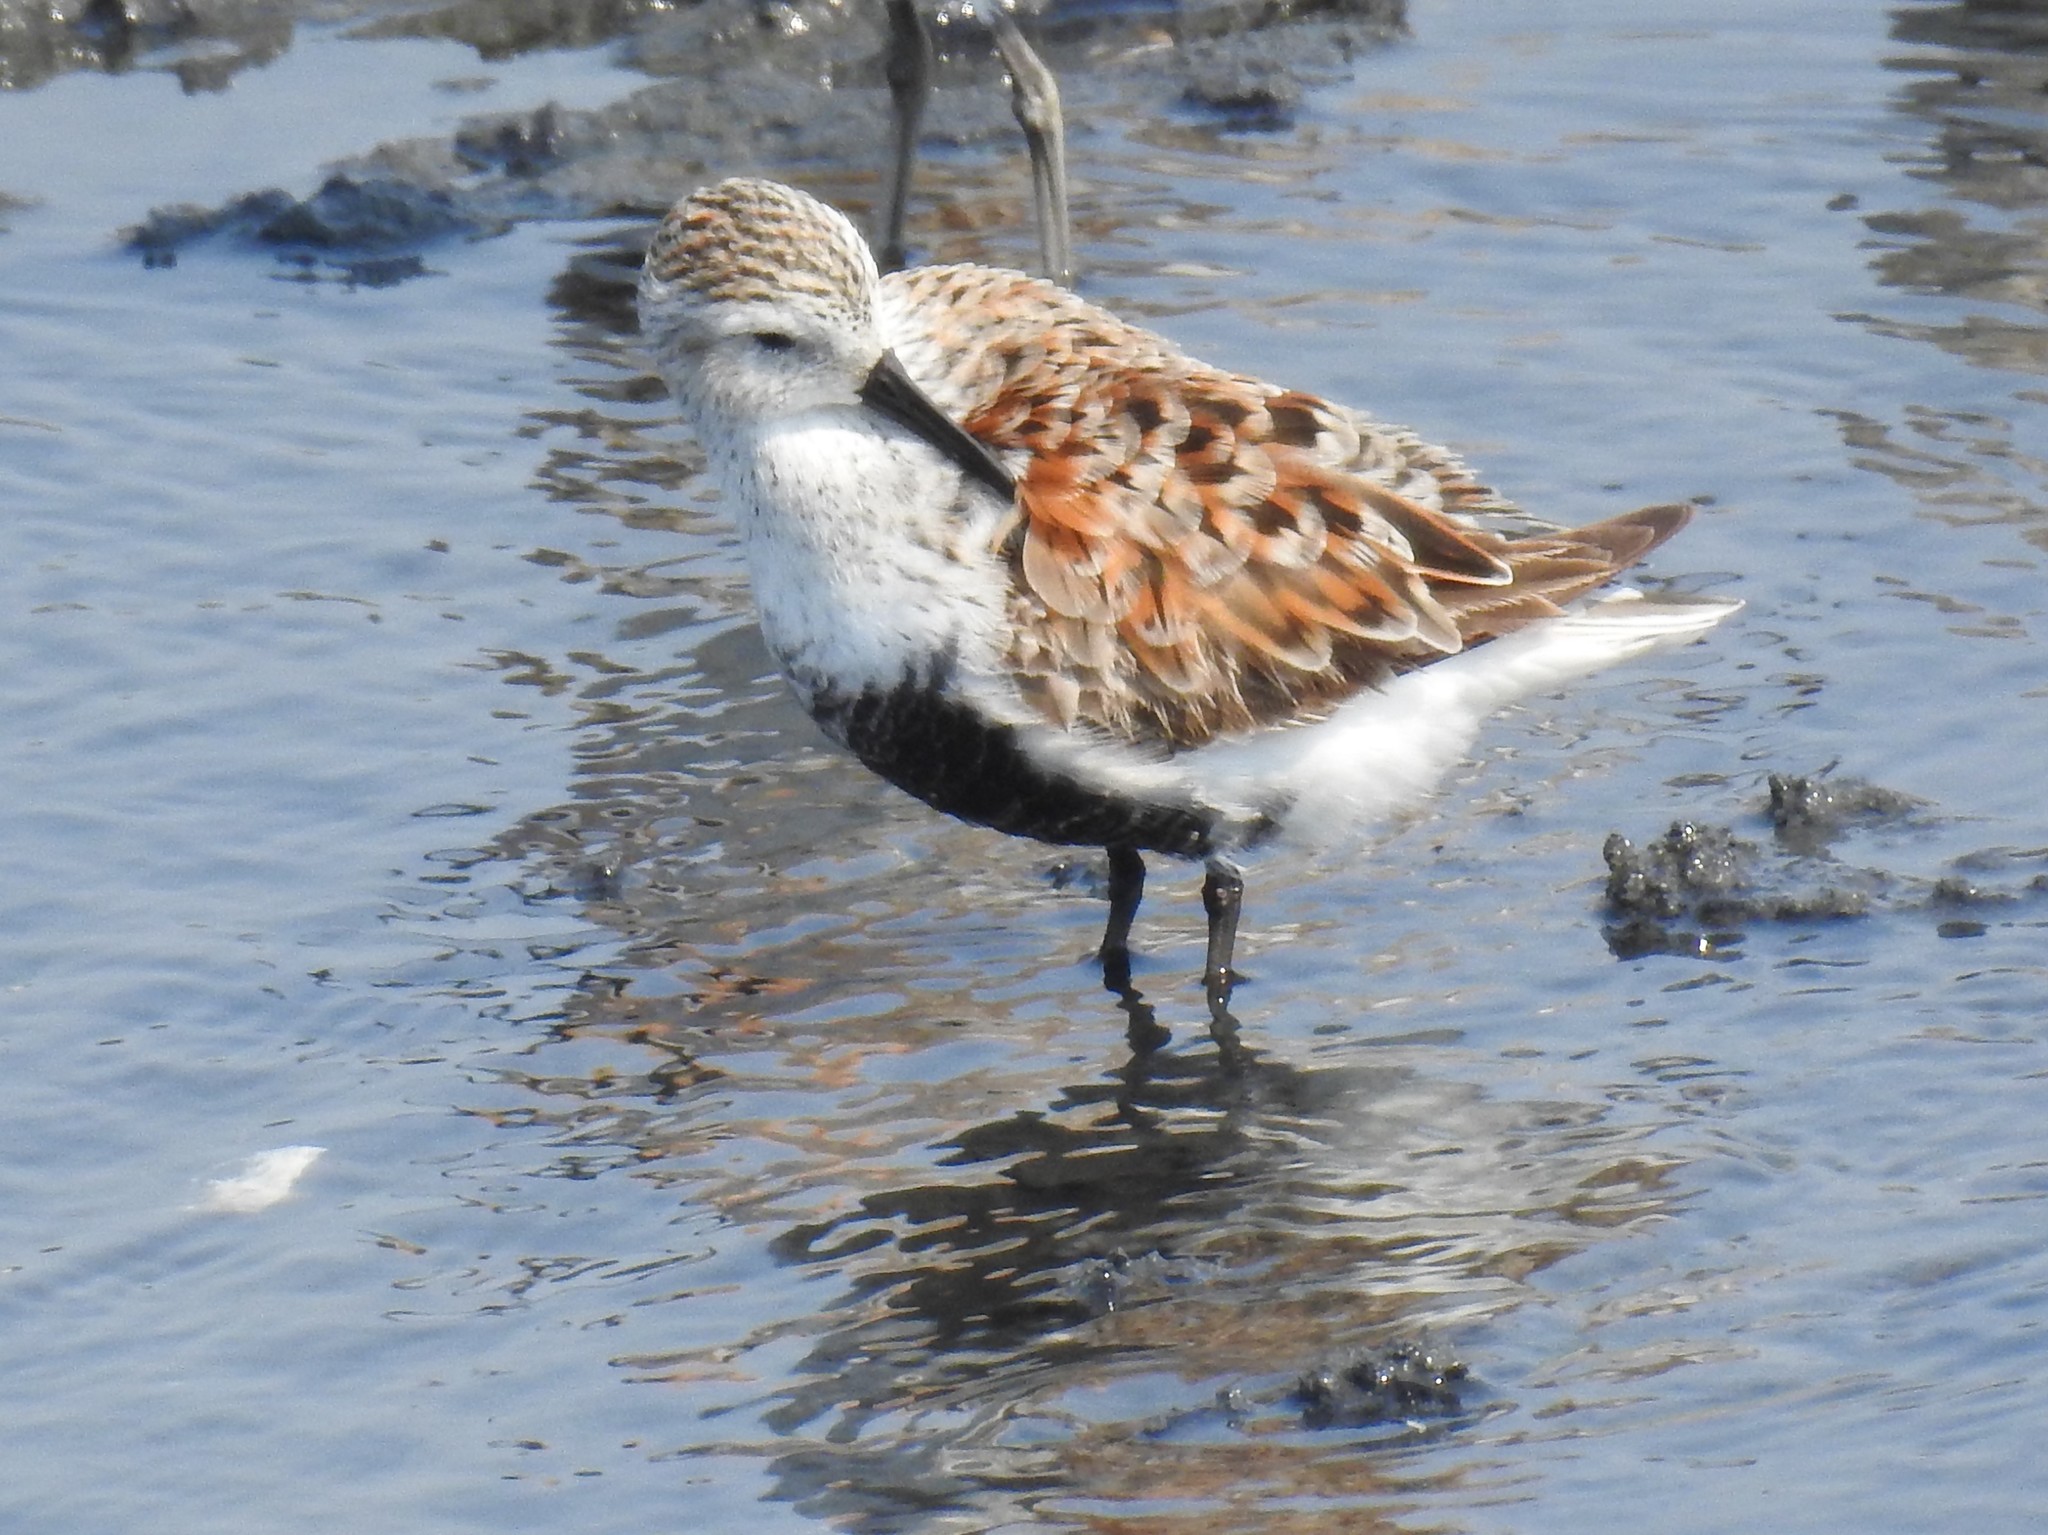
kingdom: Animalia
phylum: Chordata
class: Aves
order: Charadriiformes
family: Scolopacidae
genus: Calidris
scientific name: Calidris alpina
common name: Dunlin
